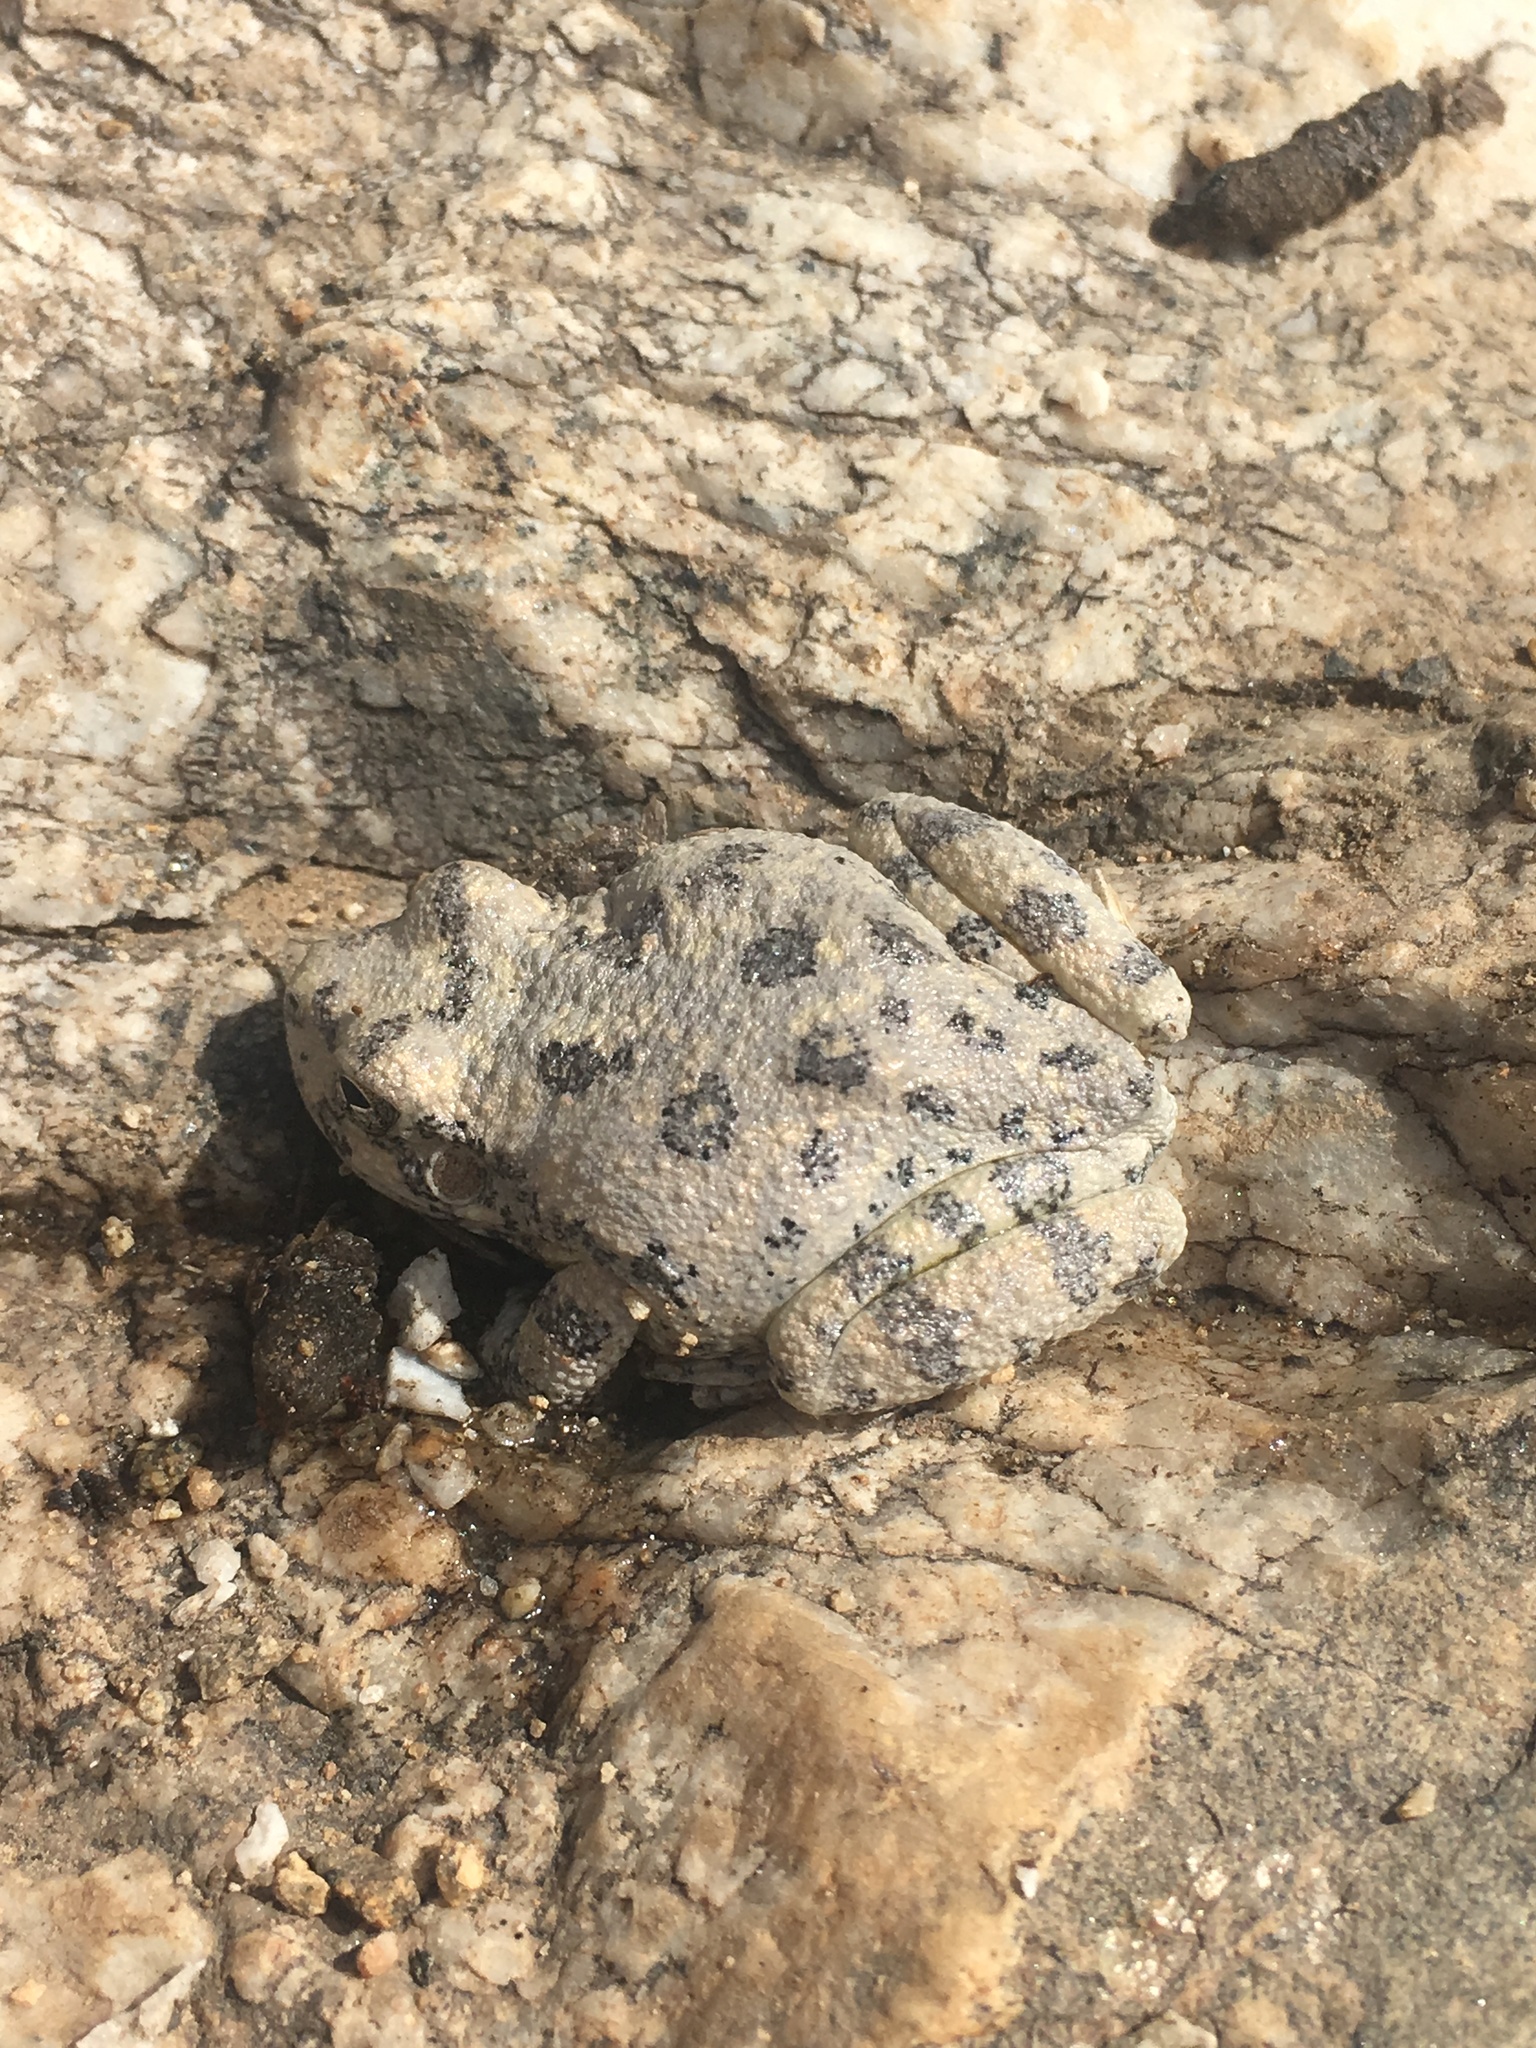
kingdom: Animalia
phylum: Chordata
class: Amphibia
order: Anura
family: Hylidae
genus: Dryophytes
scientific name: Dryophytes arenicolor
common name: Canyon treefrog
